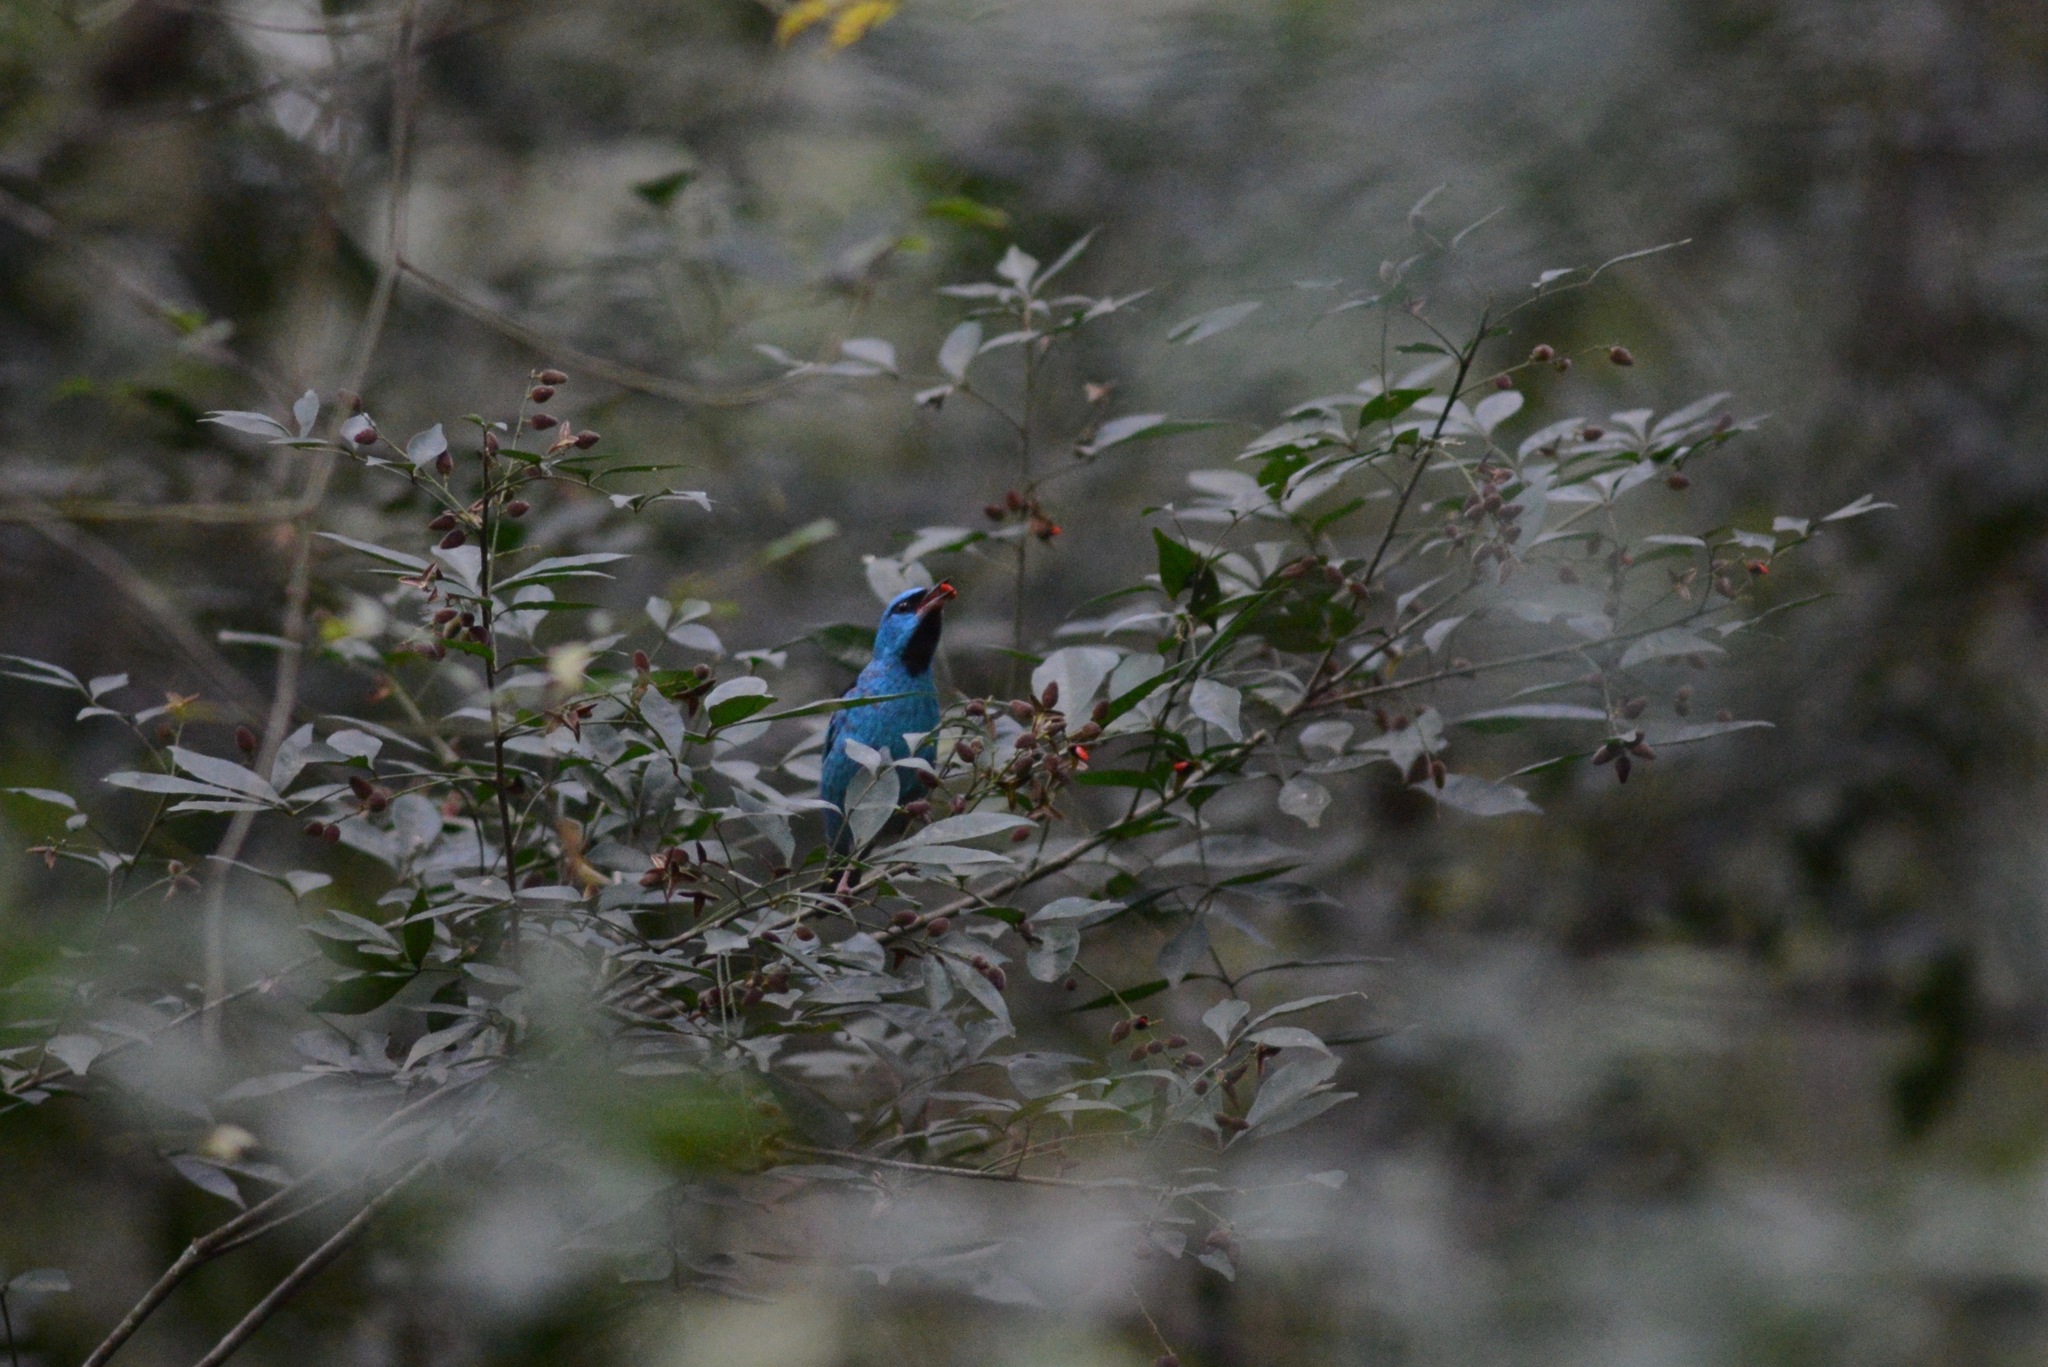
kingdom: Animalia
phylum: Chordata
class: Aves
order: Passeriformes
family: Thraupidae
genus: Dacnis
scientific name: Dacnis cayana
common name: Blue dacnis
